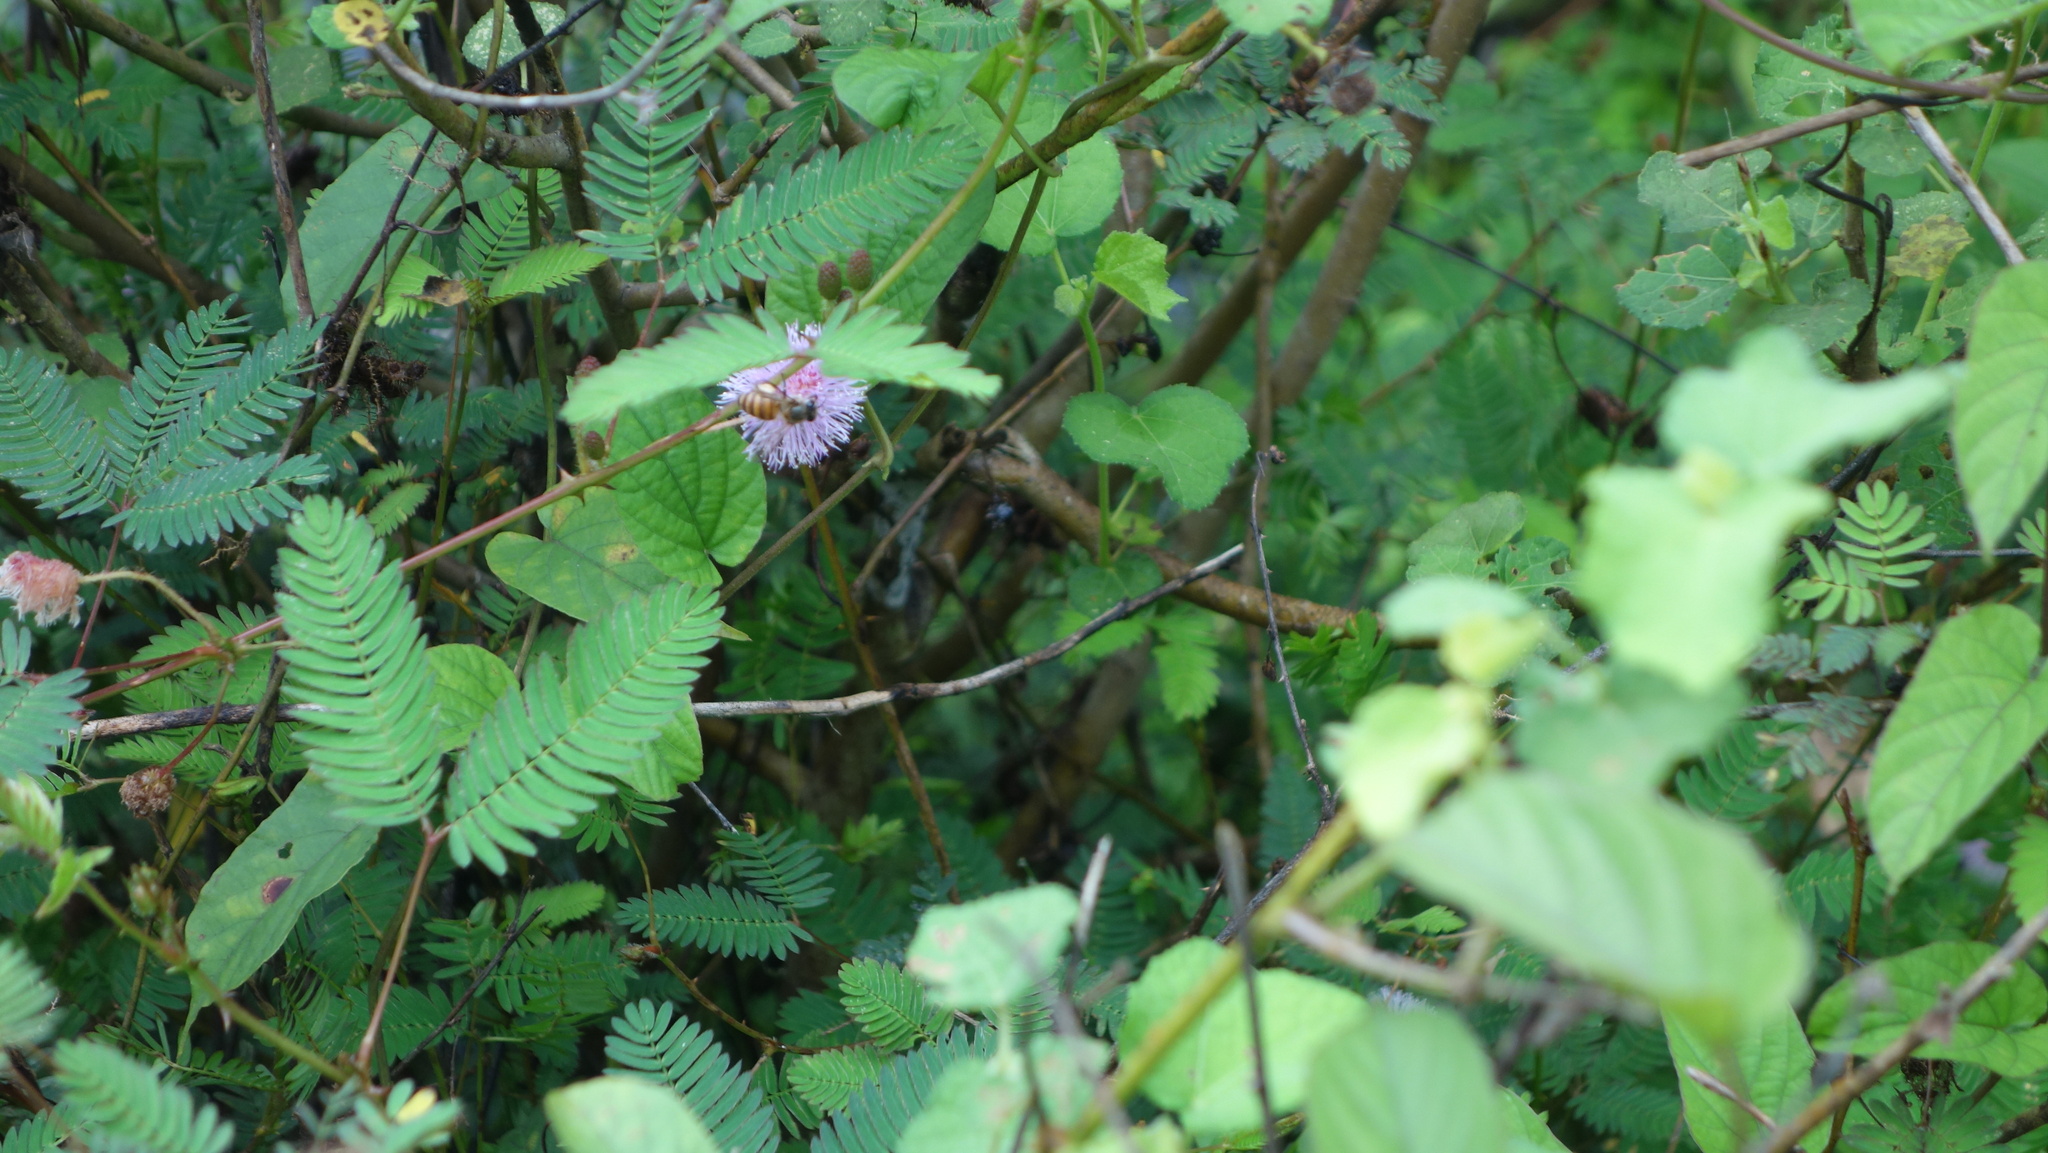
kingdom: Animalia
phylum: Arthropoda
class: Insecta
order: Hymenoptera
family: Apidae
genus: Apis
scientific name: Apis cerana
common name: Honey bee
